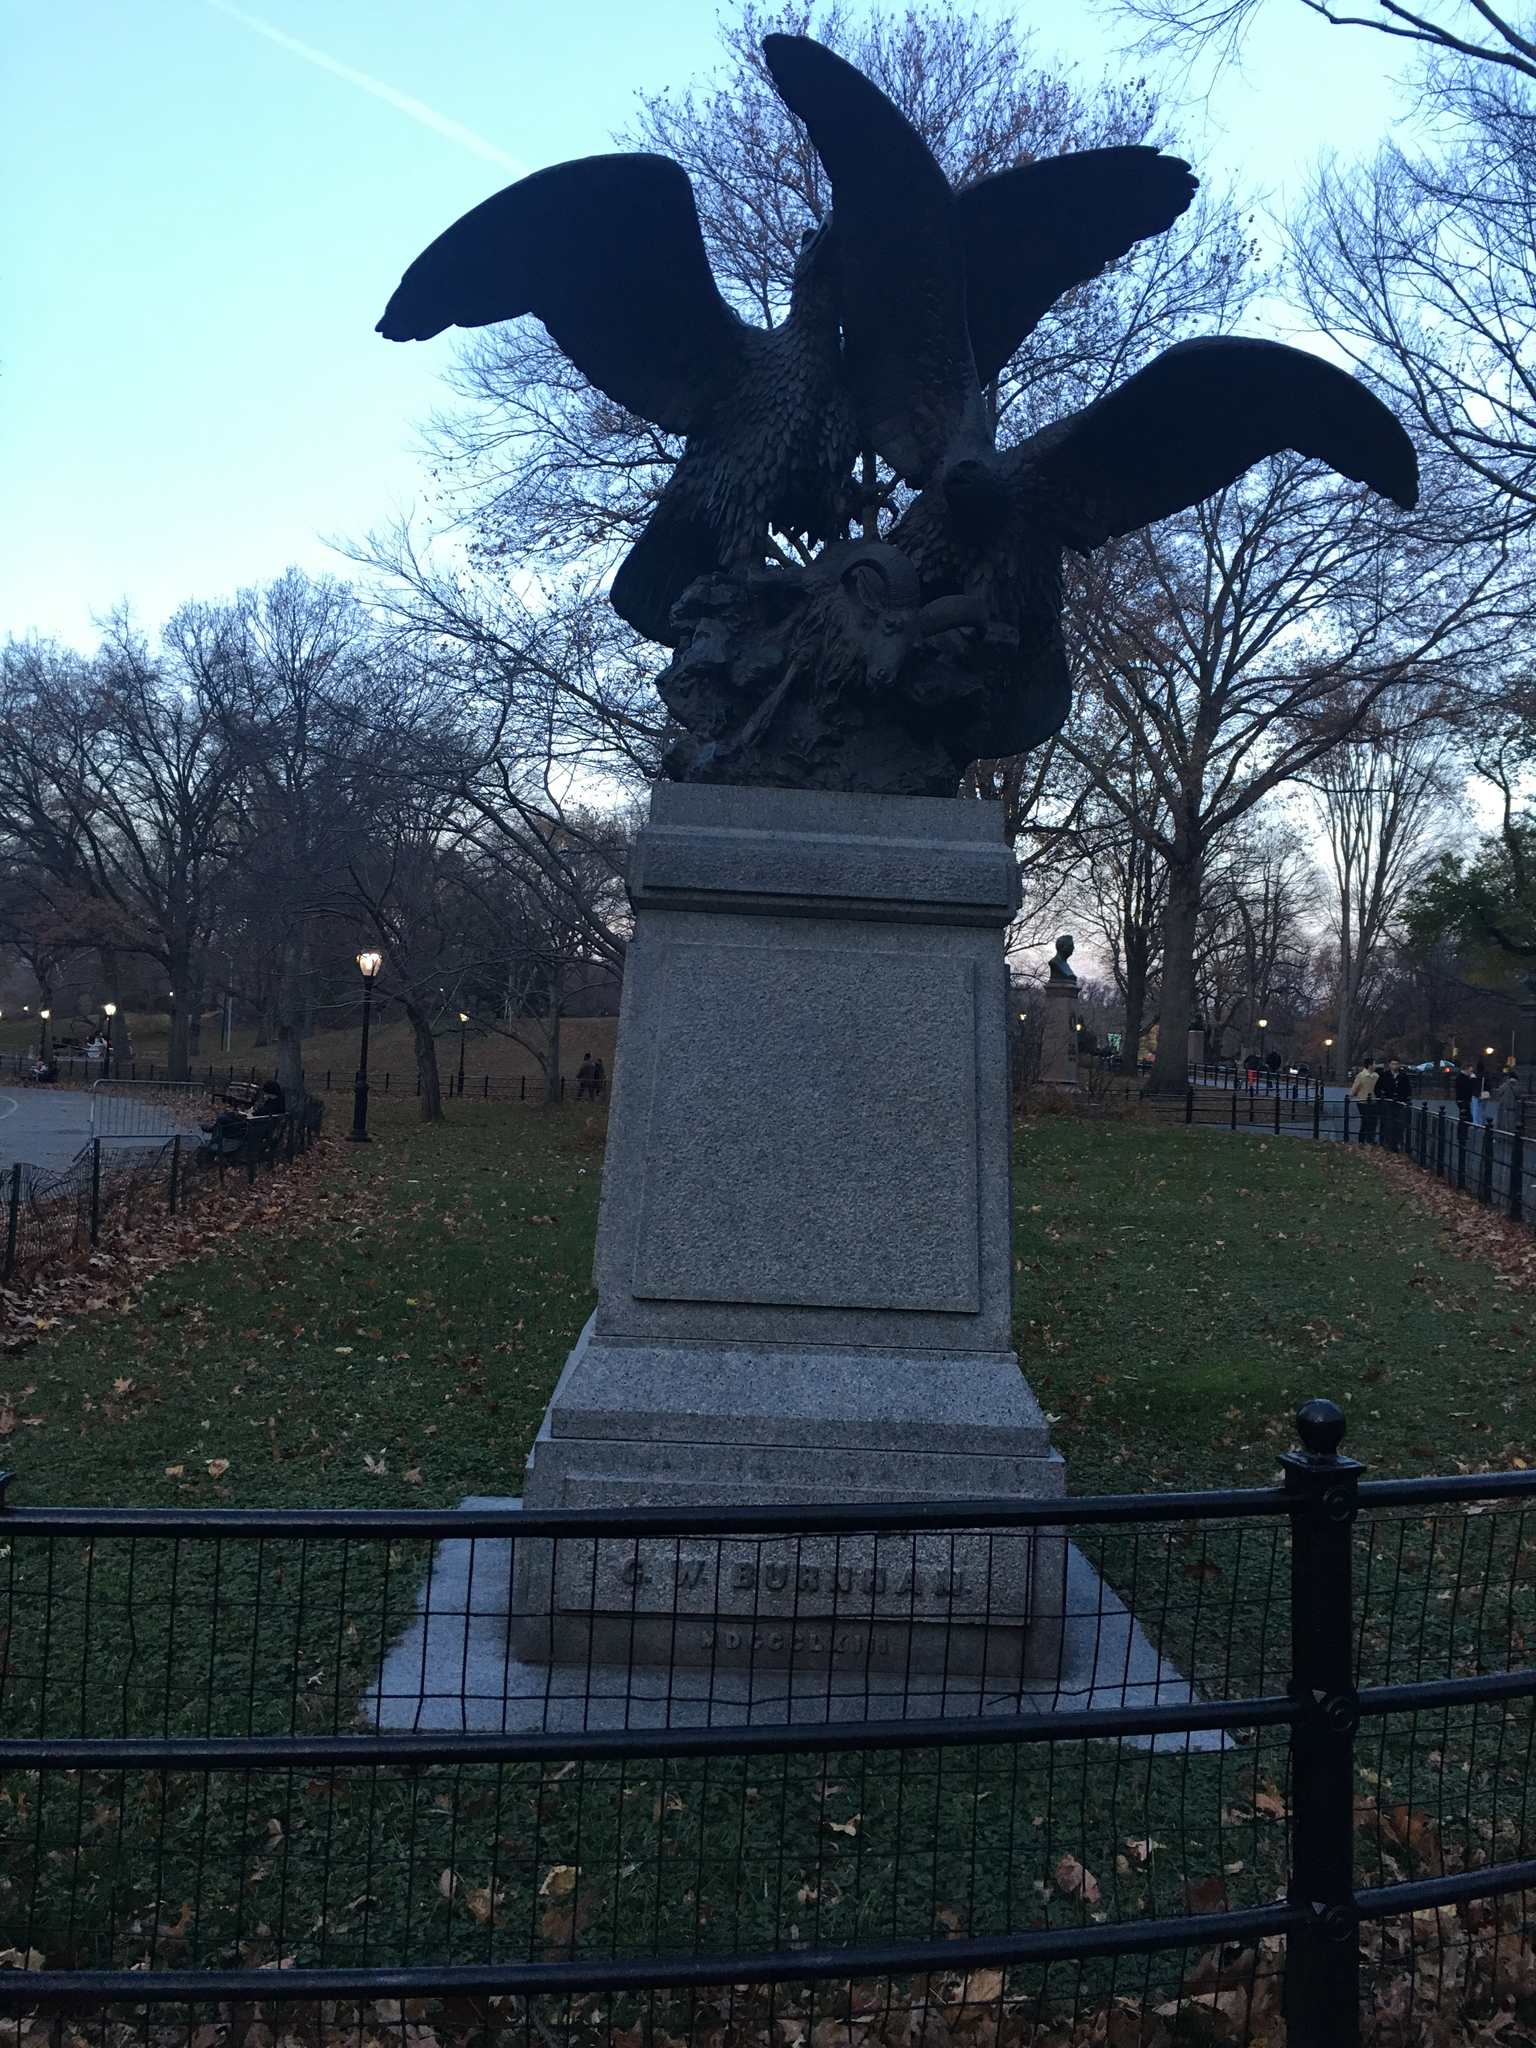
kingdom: Plantae
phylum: Tracheophyta
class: Magnoliopsida
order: Rosales
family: Rosaceae
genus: Potentilla
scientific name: Potentilla indica
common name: Yellow-flowered strawberry
